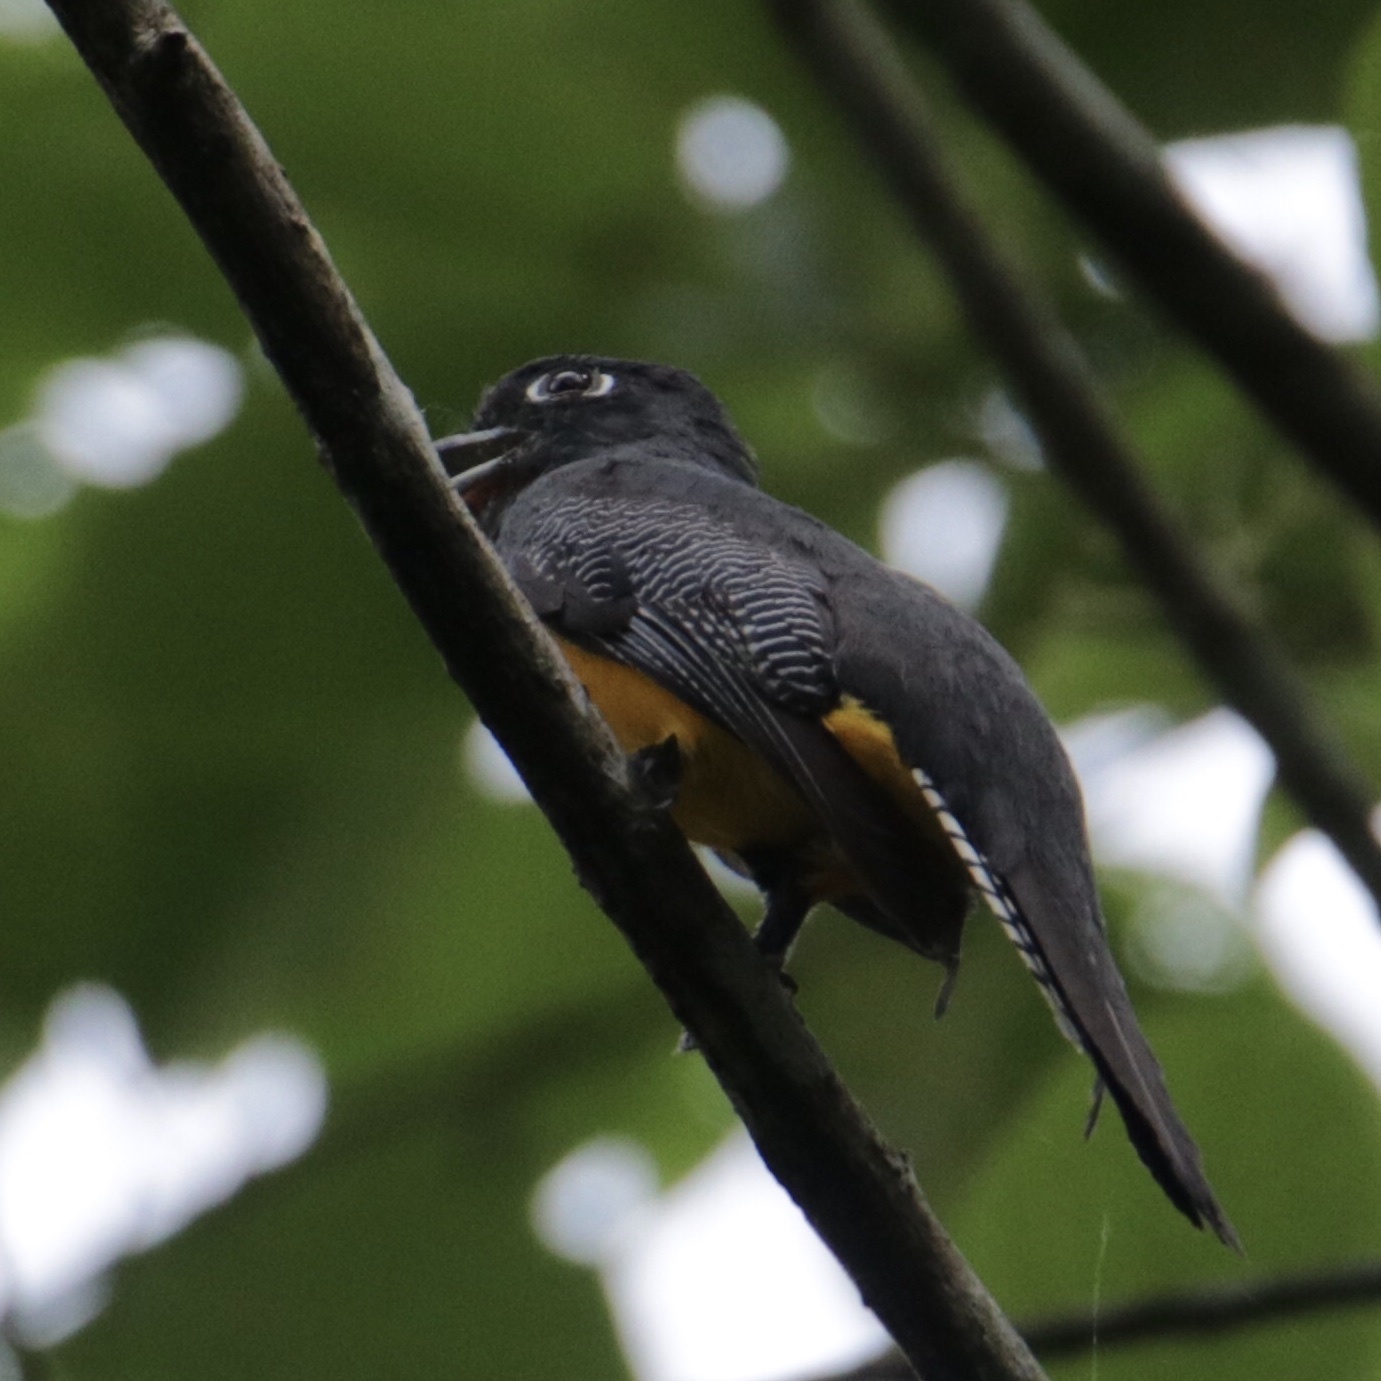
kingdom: Animalia
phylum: Chordata
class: Aves
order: Trogoniformes
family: Trogonidae
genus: Trogon
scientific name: Trogon caligatus
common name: Gartered trogon
